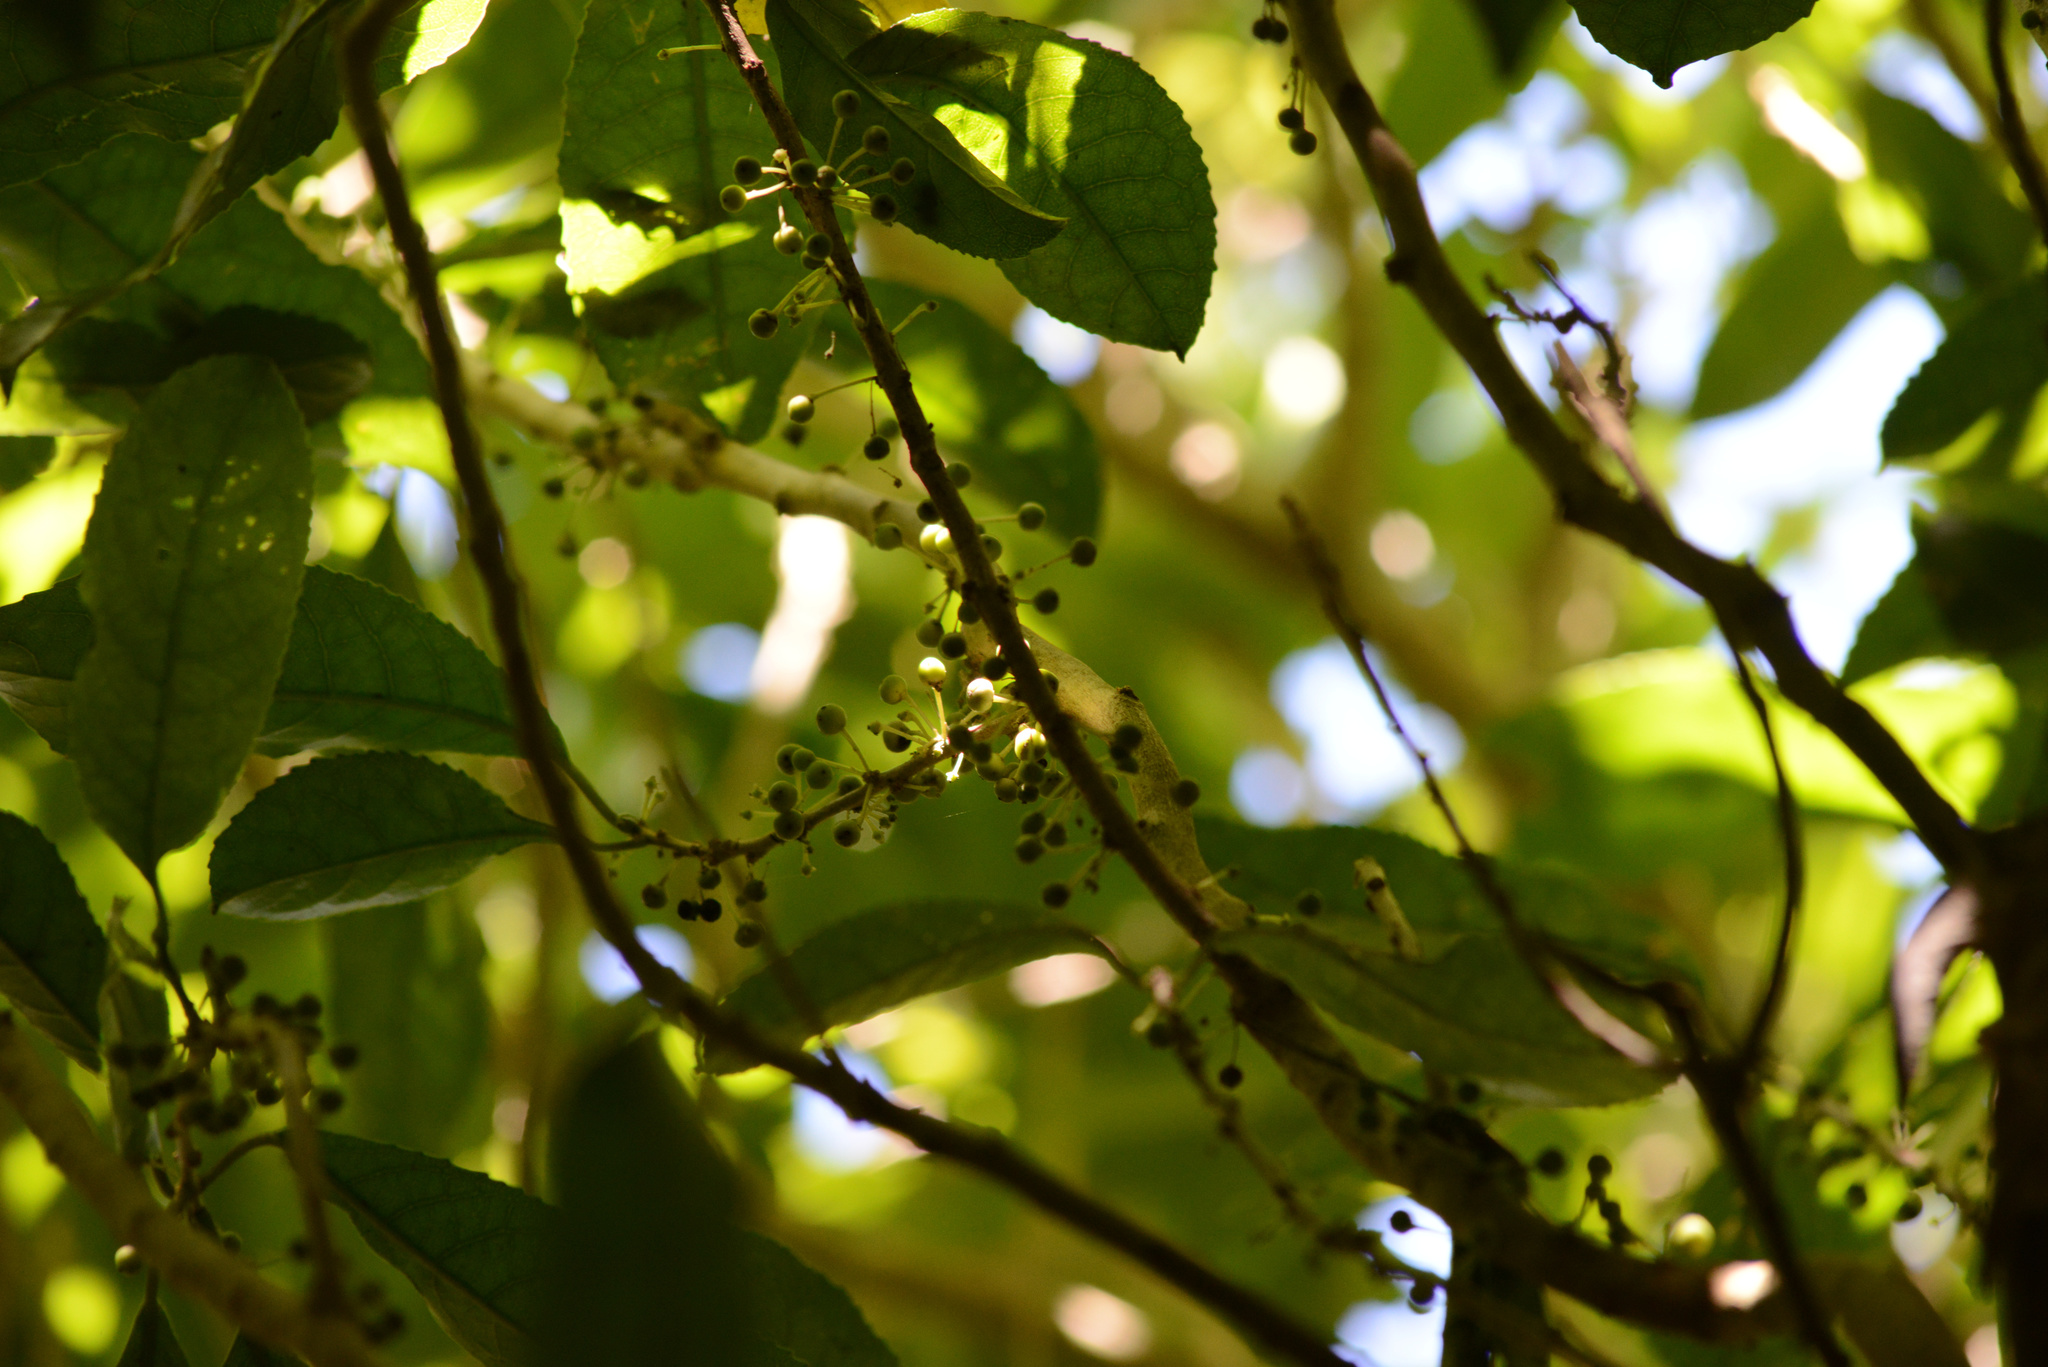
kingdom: Plantae
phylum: Tracheophyta
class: Magnoliopsida
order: Malpighiales
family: Violaceae
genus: Melicytus
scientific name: Melicytus ramiflorus
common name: Mahoe
